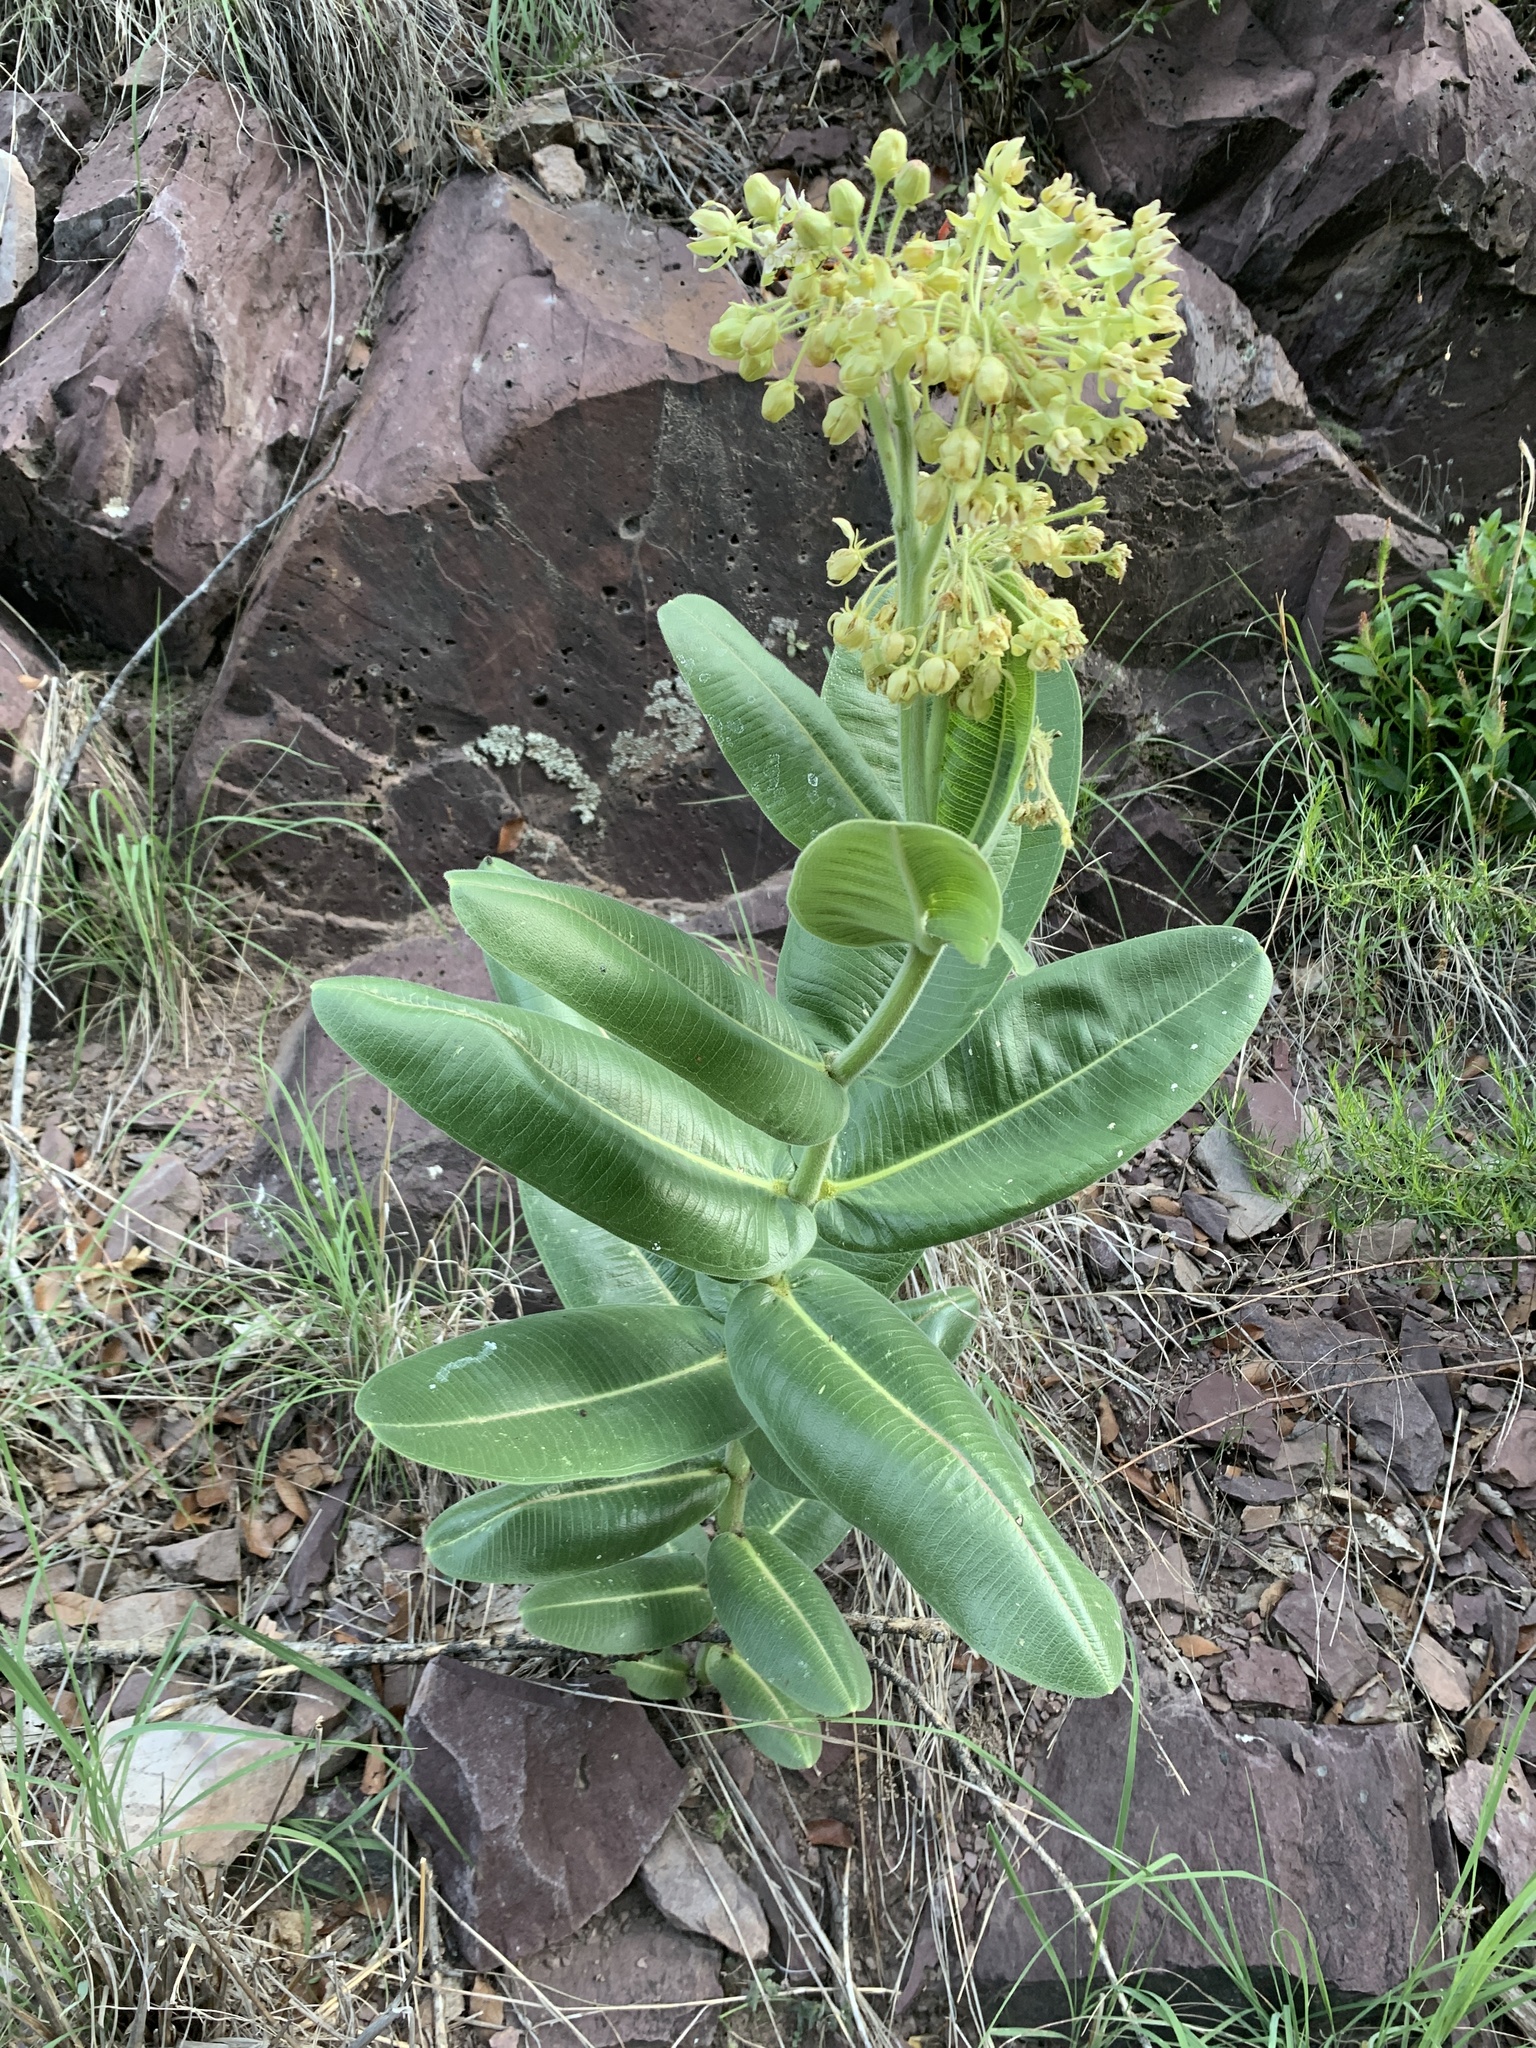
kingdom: Plantae
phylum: Tracheophyta
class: Magnoliopsida
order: Gentianales
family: Apocynaceae
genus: Asclepias
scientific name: Asclepias lemmonii
